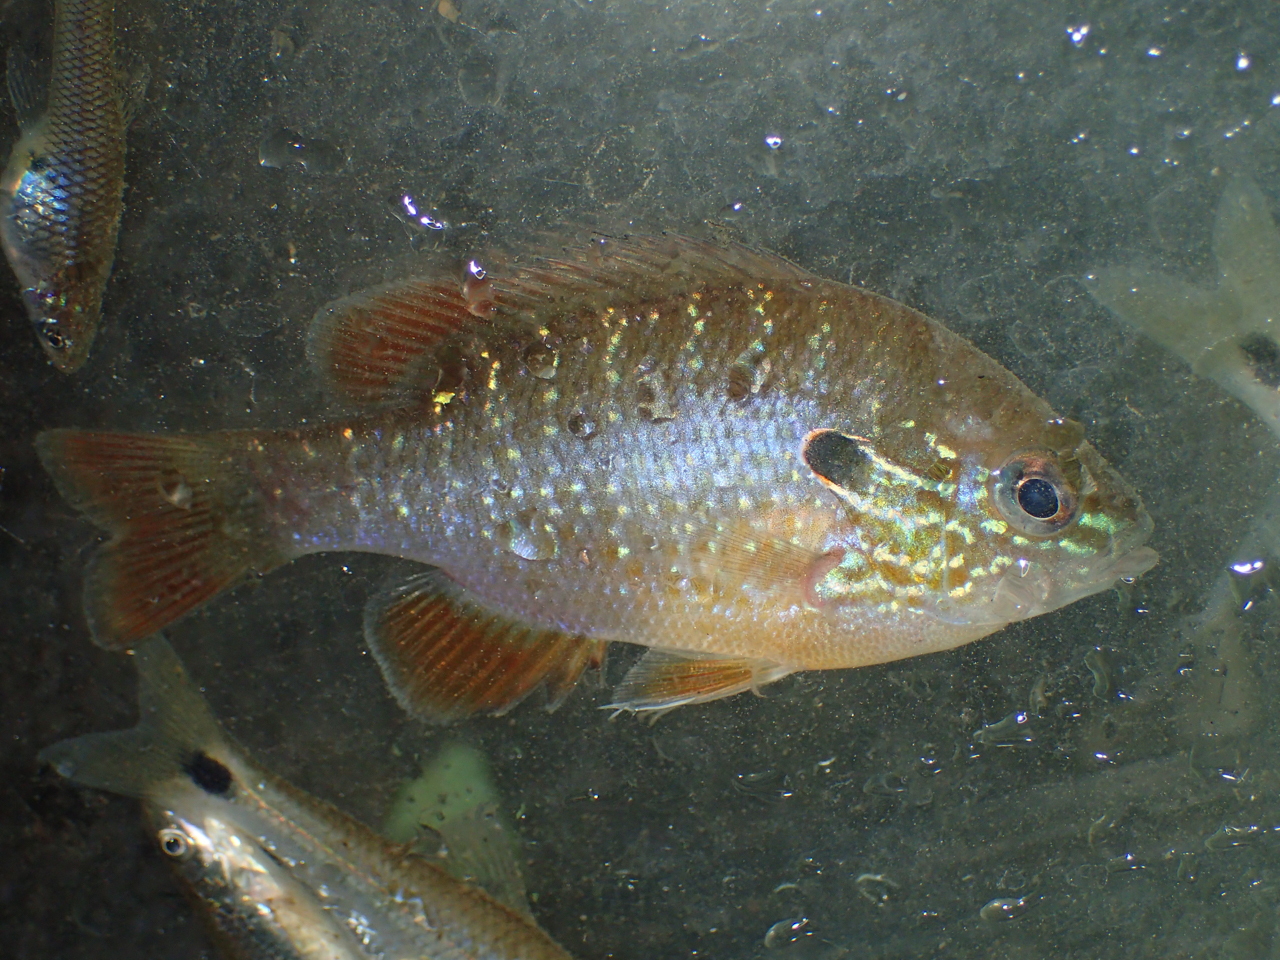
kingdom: Animalia
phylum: Chordata
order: Perciformes
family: Centrarchidae
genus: Lepomis
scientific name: Lepomis megalotis
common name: Longear sunfish
